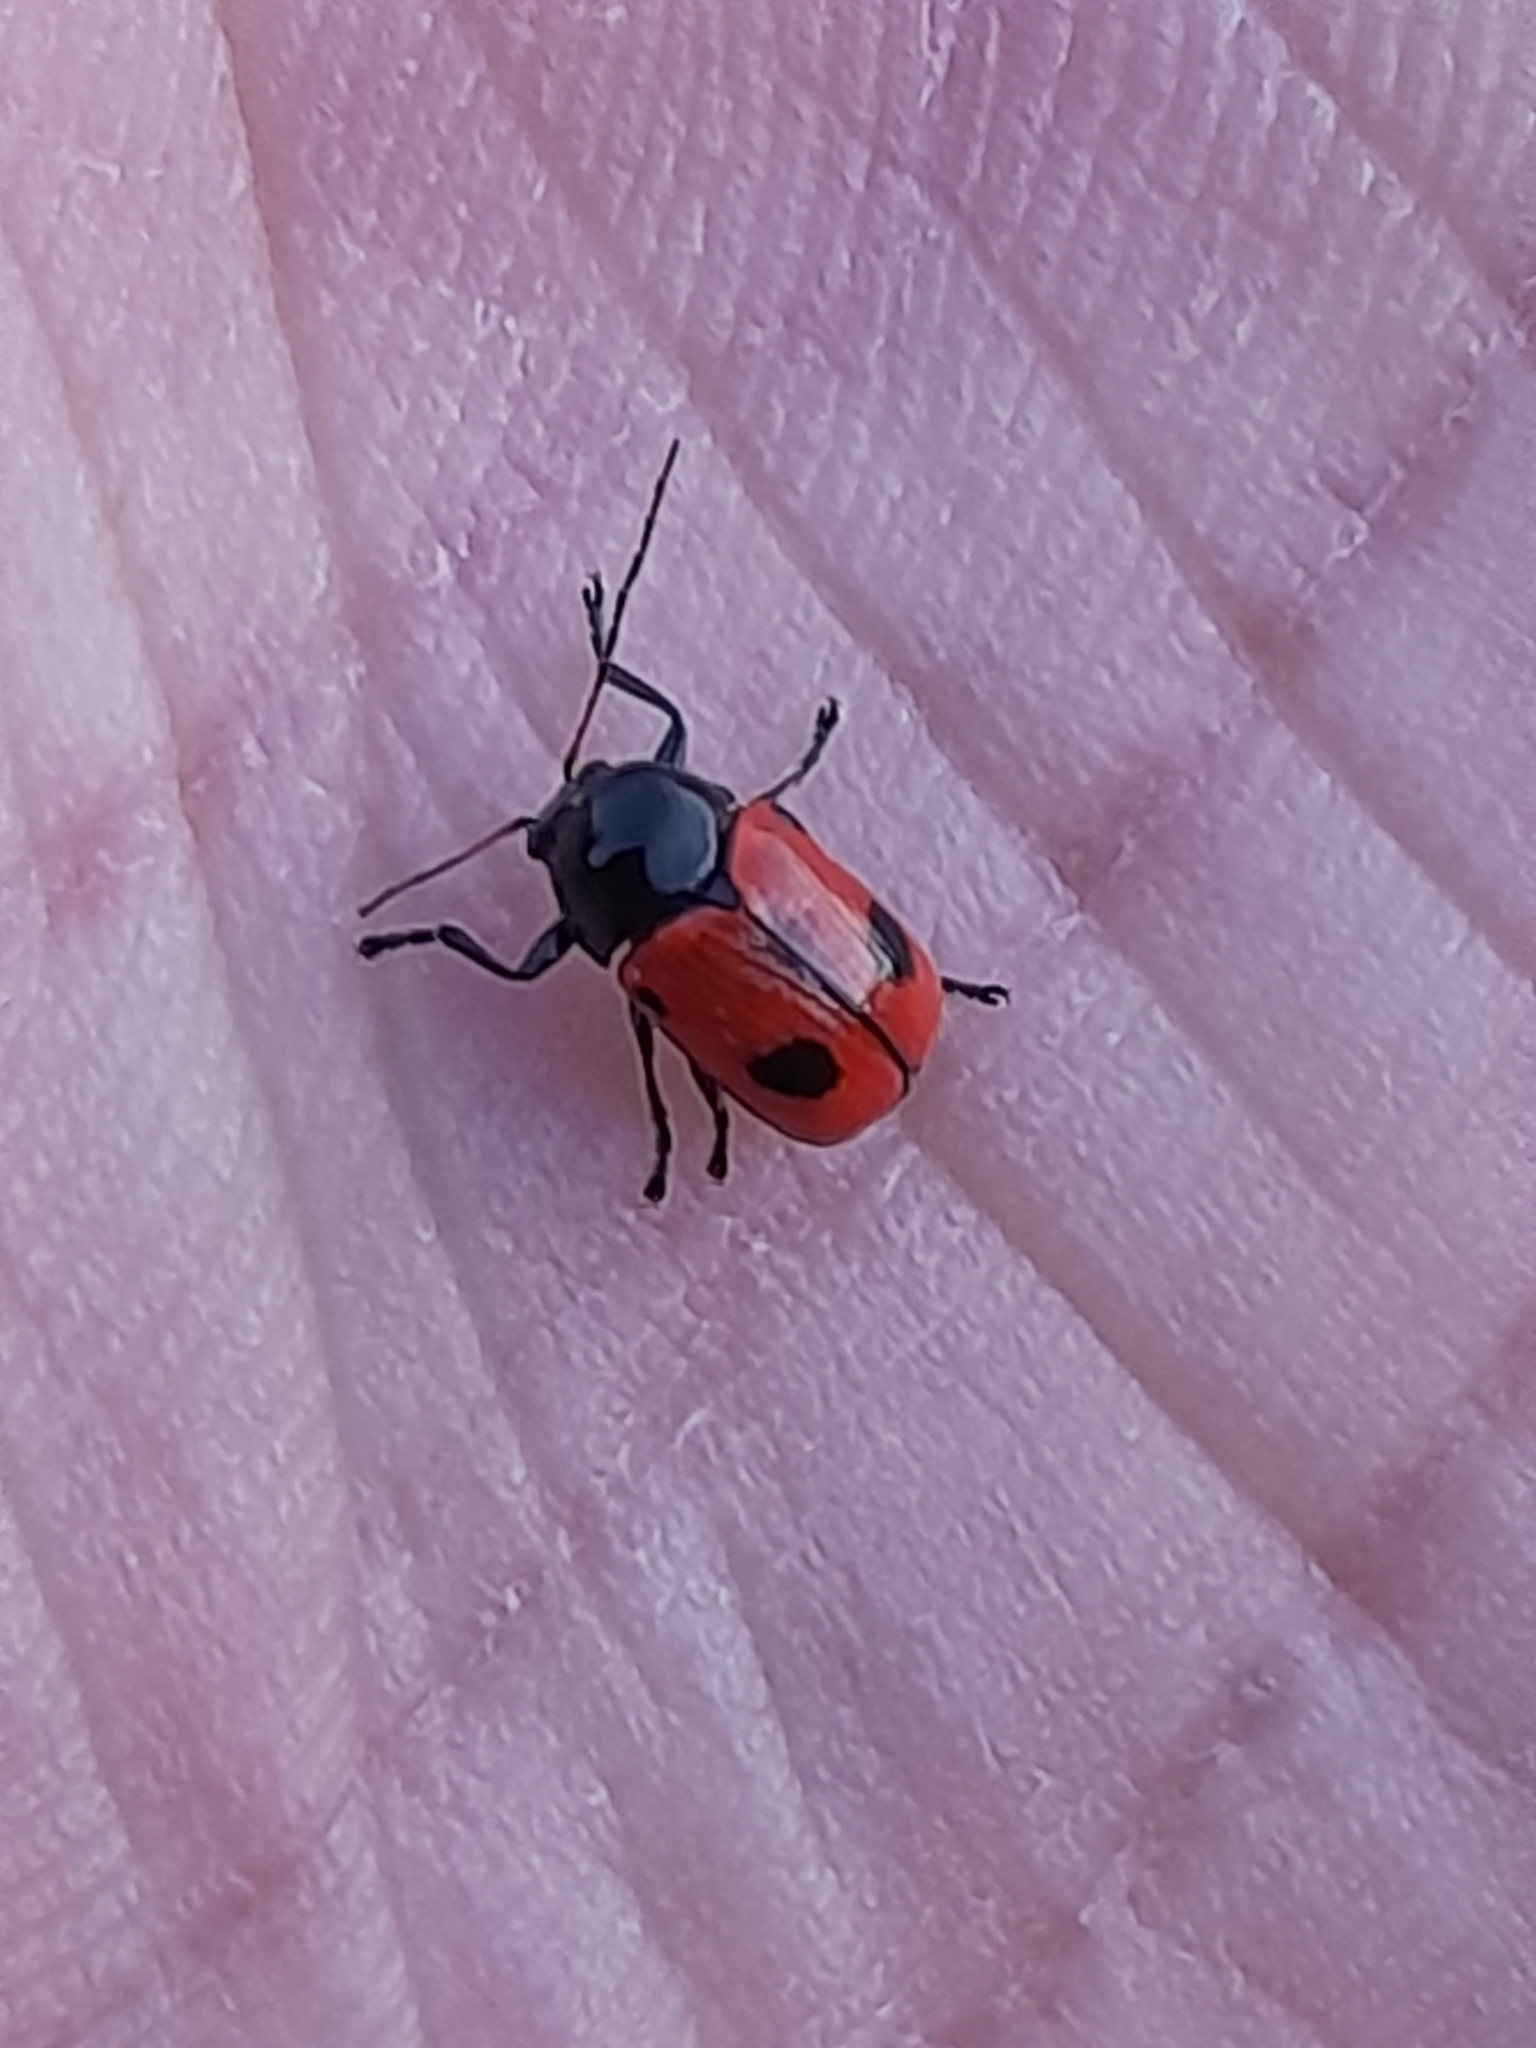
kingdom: Animalia
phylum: Arthropoda
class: Insecta
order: Coleoptera
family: Chrysomelidae
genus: Chiridopsis
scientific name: Chiridopsis bipunctata
